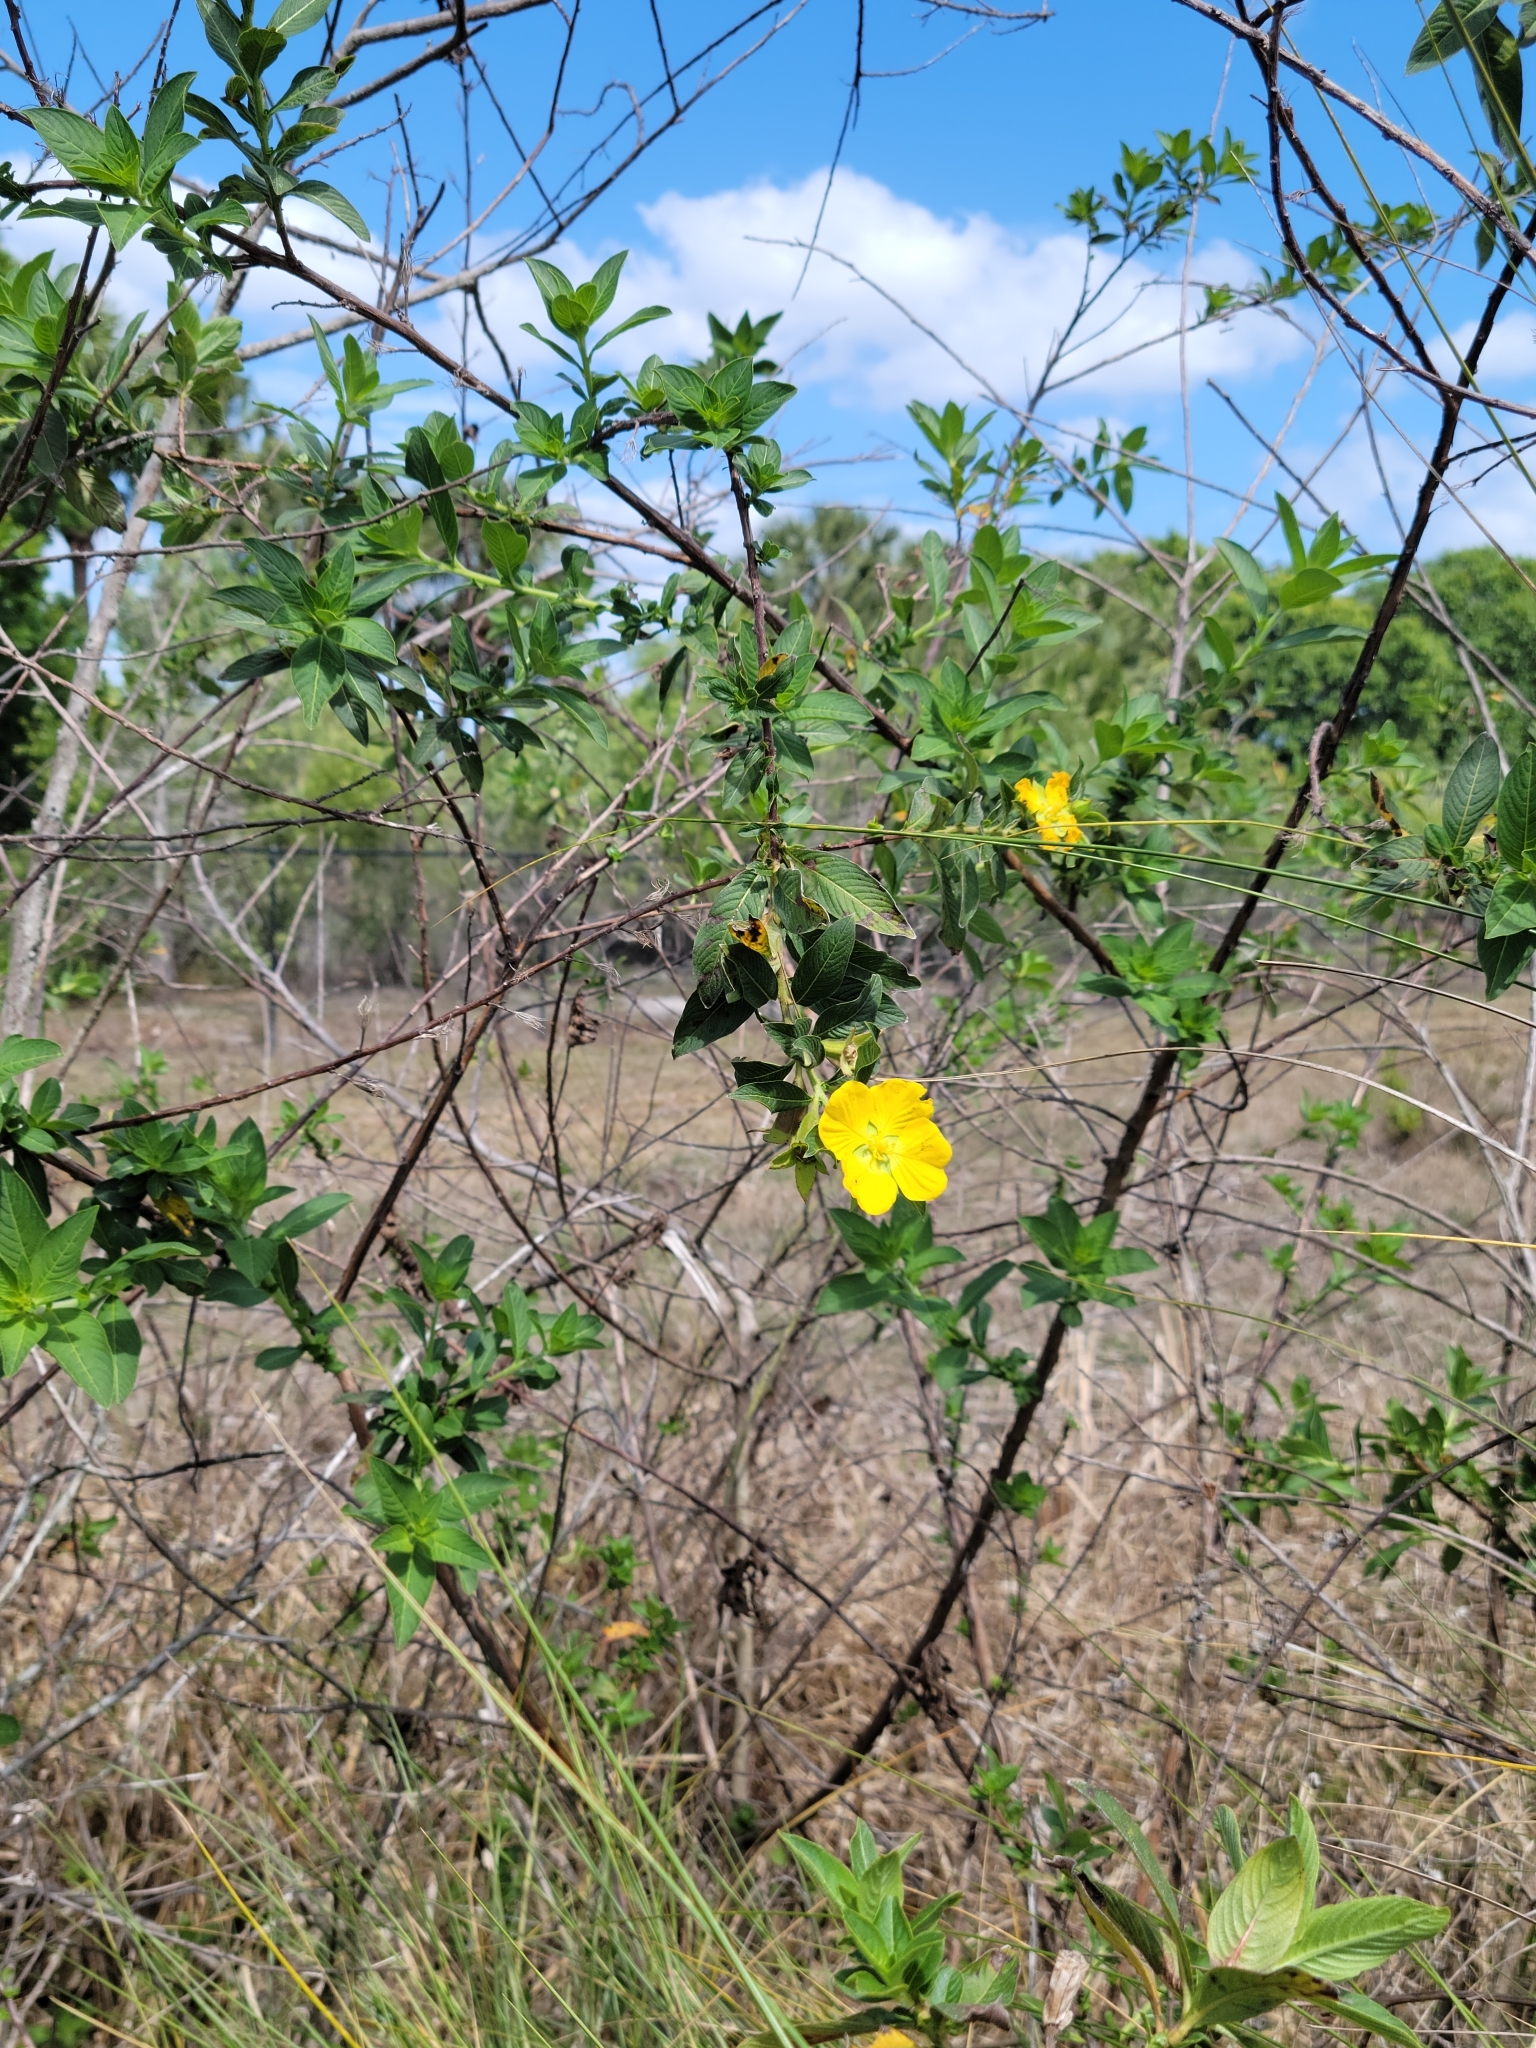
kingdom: Plantae
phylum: Tracheophyta
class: Magnoliopsida
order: Myrtales
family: Onagraceae
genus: Ludwigia
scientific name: Ludwigia peruviana
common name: Peruvian primrose-willow
